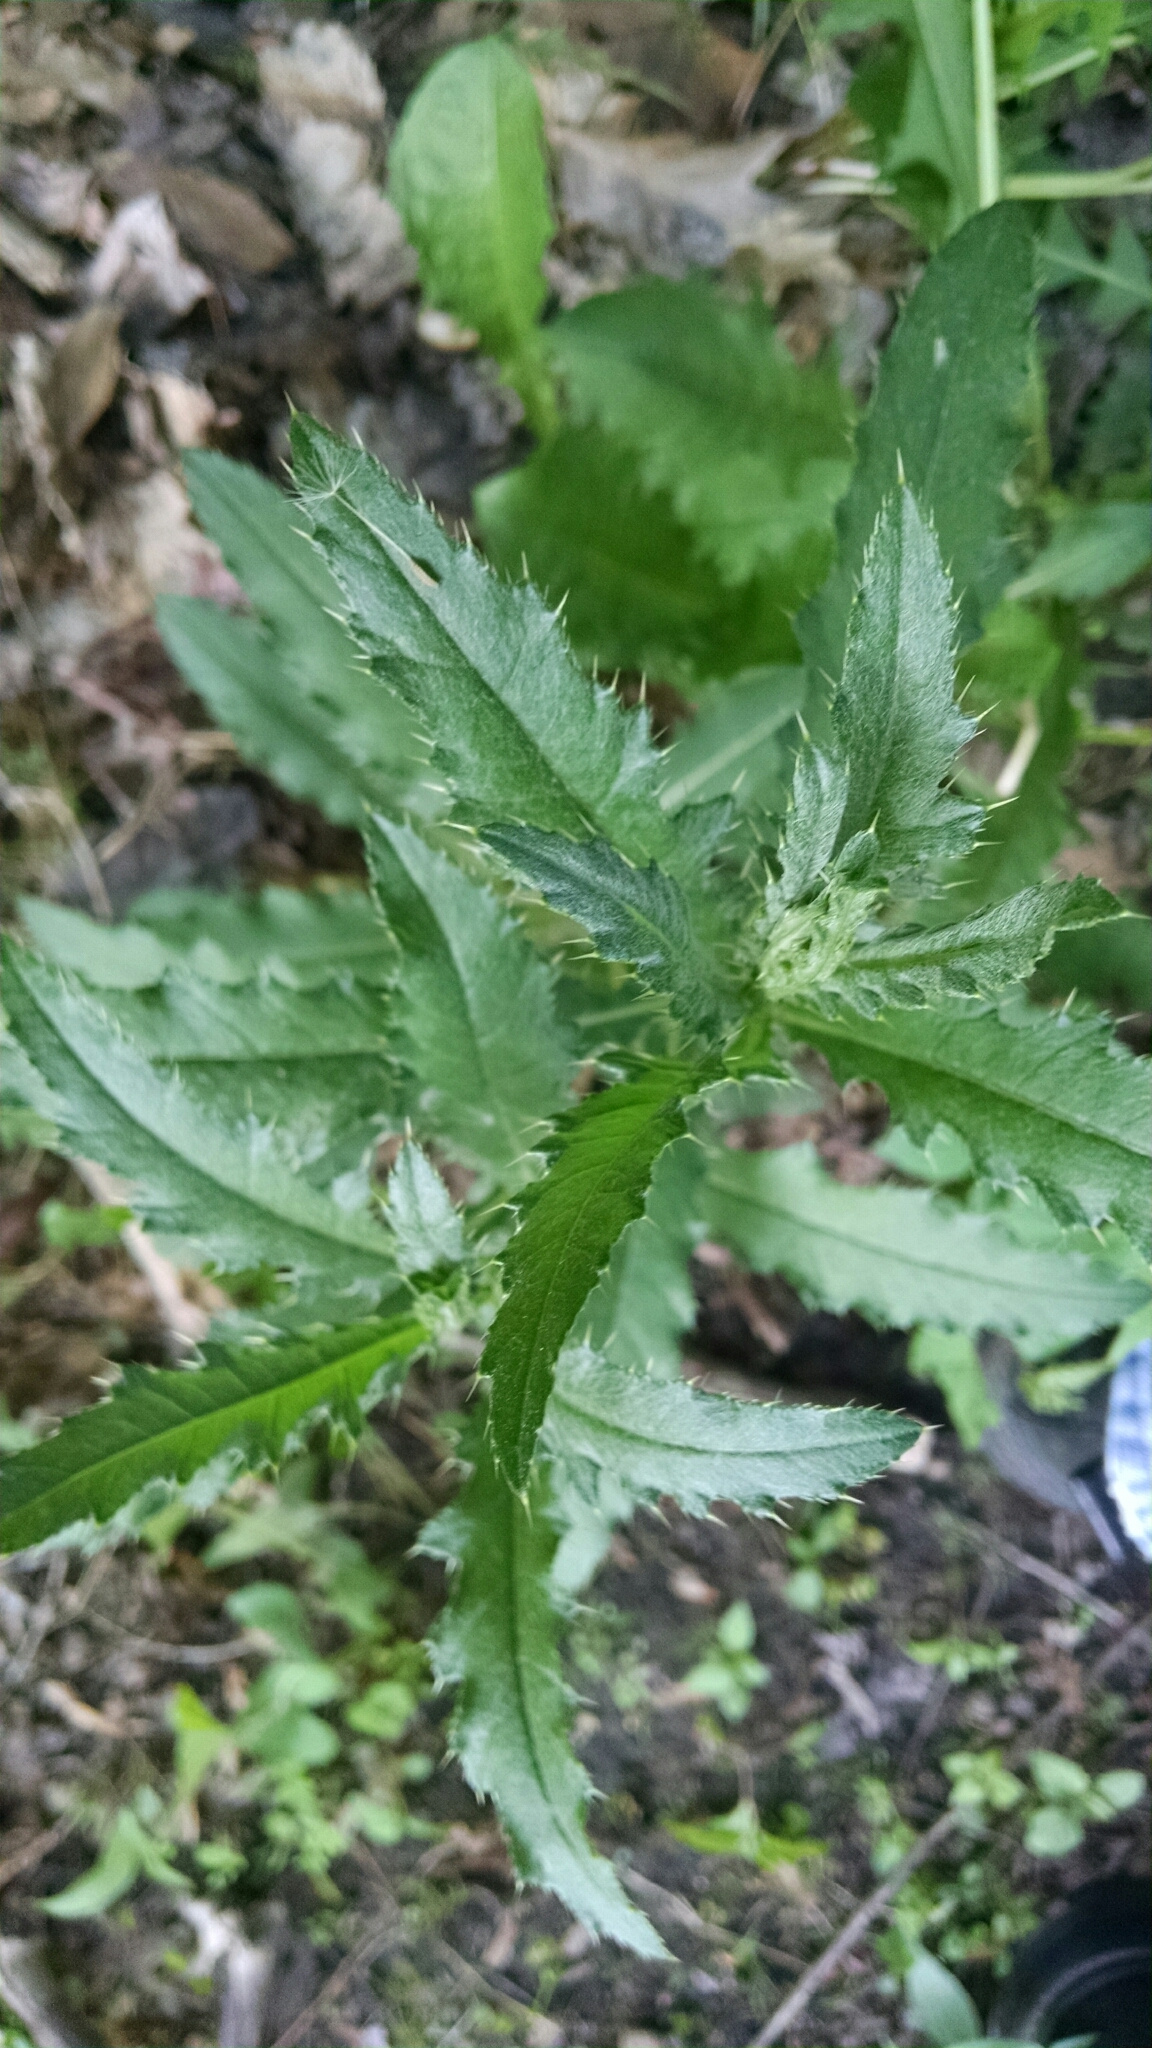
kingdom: Plantae
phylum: Tracheophyta
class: Magnoliopsida
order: Asterales
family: Asteraceae
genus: Cirsium
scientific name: Cirsium arvense
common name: Creeping thistle
